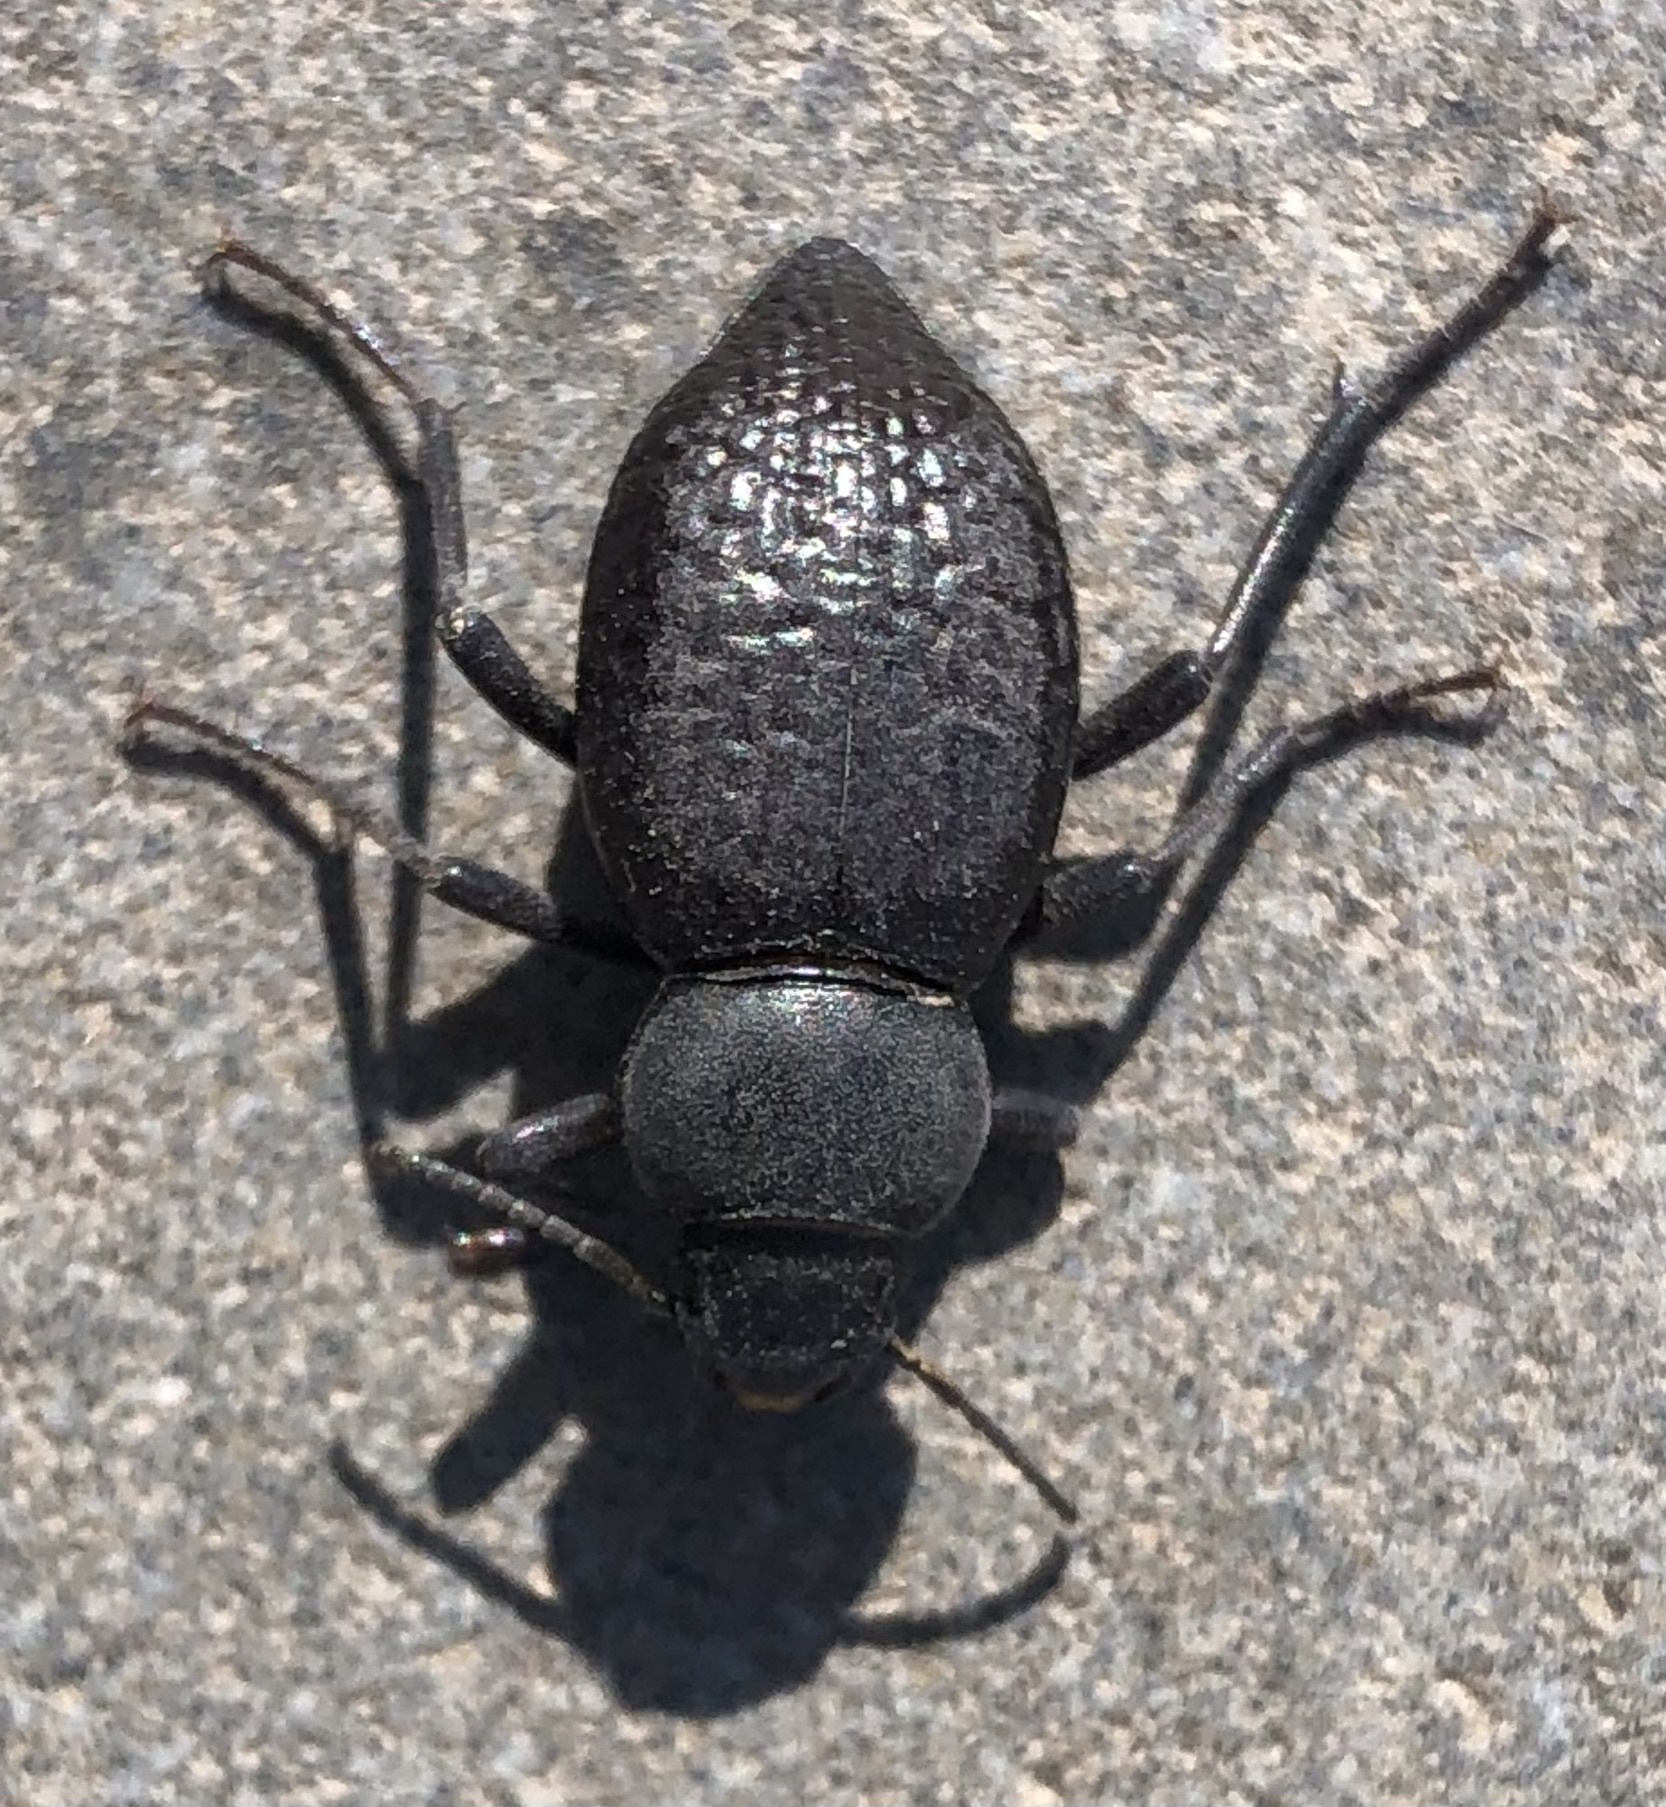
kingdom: Animalia
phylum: Arthropoda
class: Insecta
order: Coleoptera
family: Tenebrionidae
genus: Tentyria
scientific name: Tentyria
